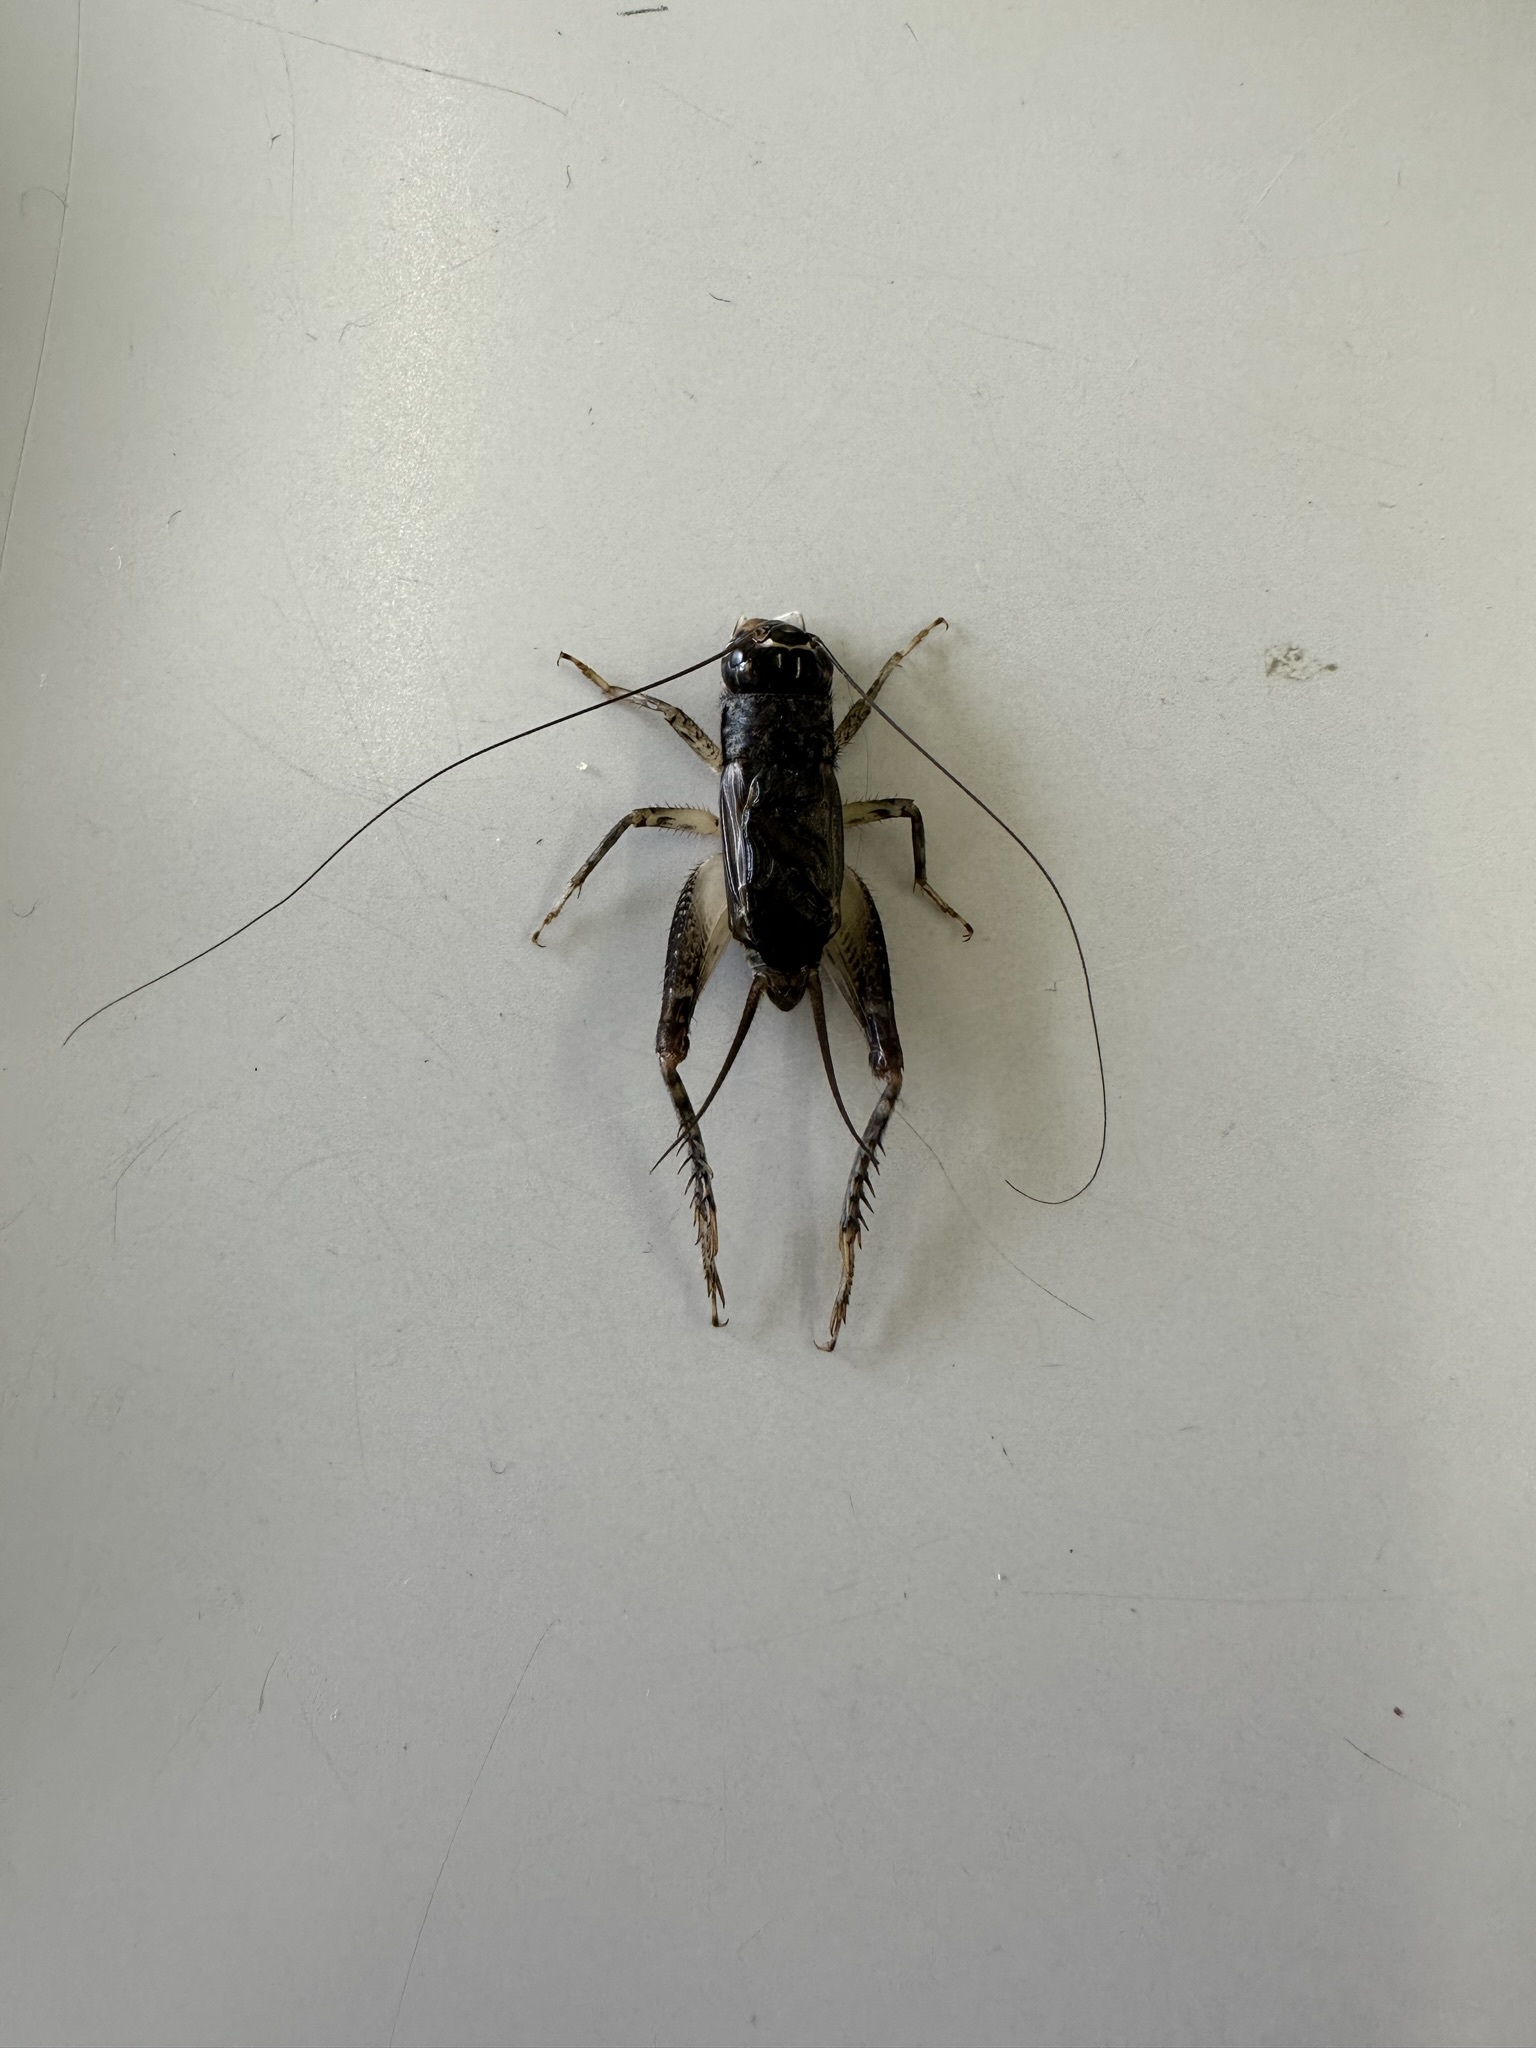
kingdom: Animalia
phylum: Arthropoda
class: Insecta
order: Orthoptera
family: Gryllidae
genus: Velarifictorus
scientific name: Velarifictorus micado
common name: Japanese burrowing cricket
